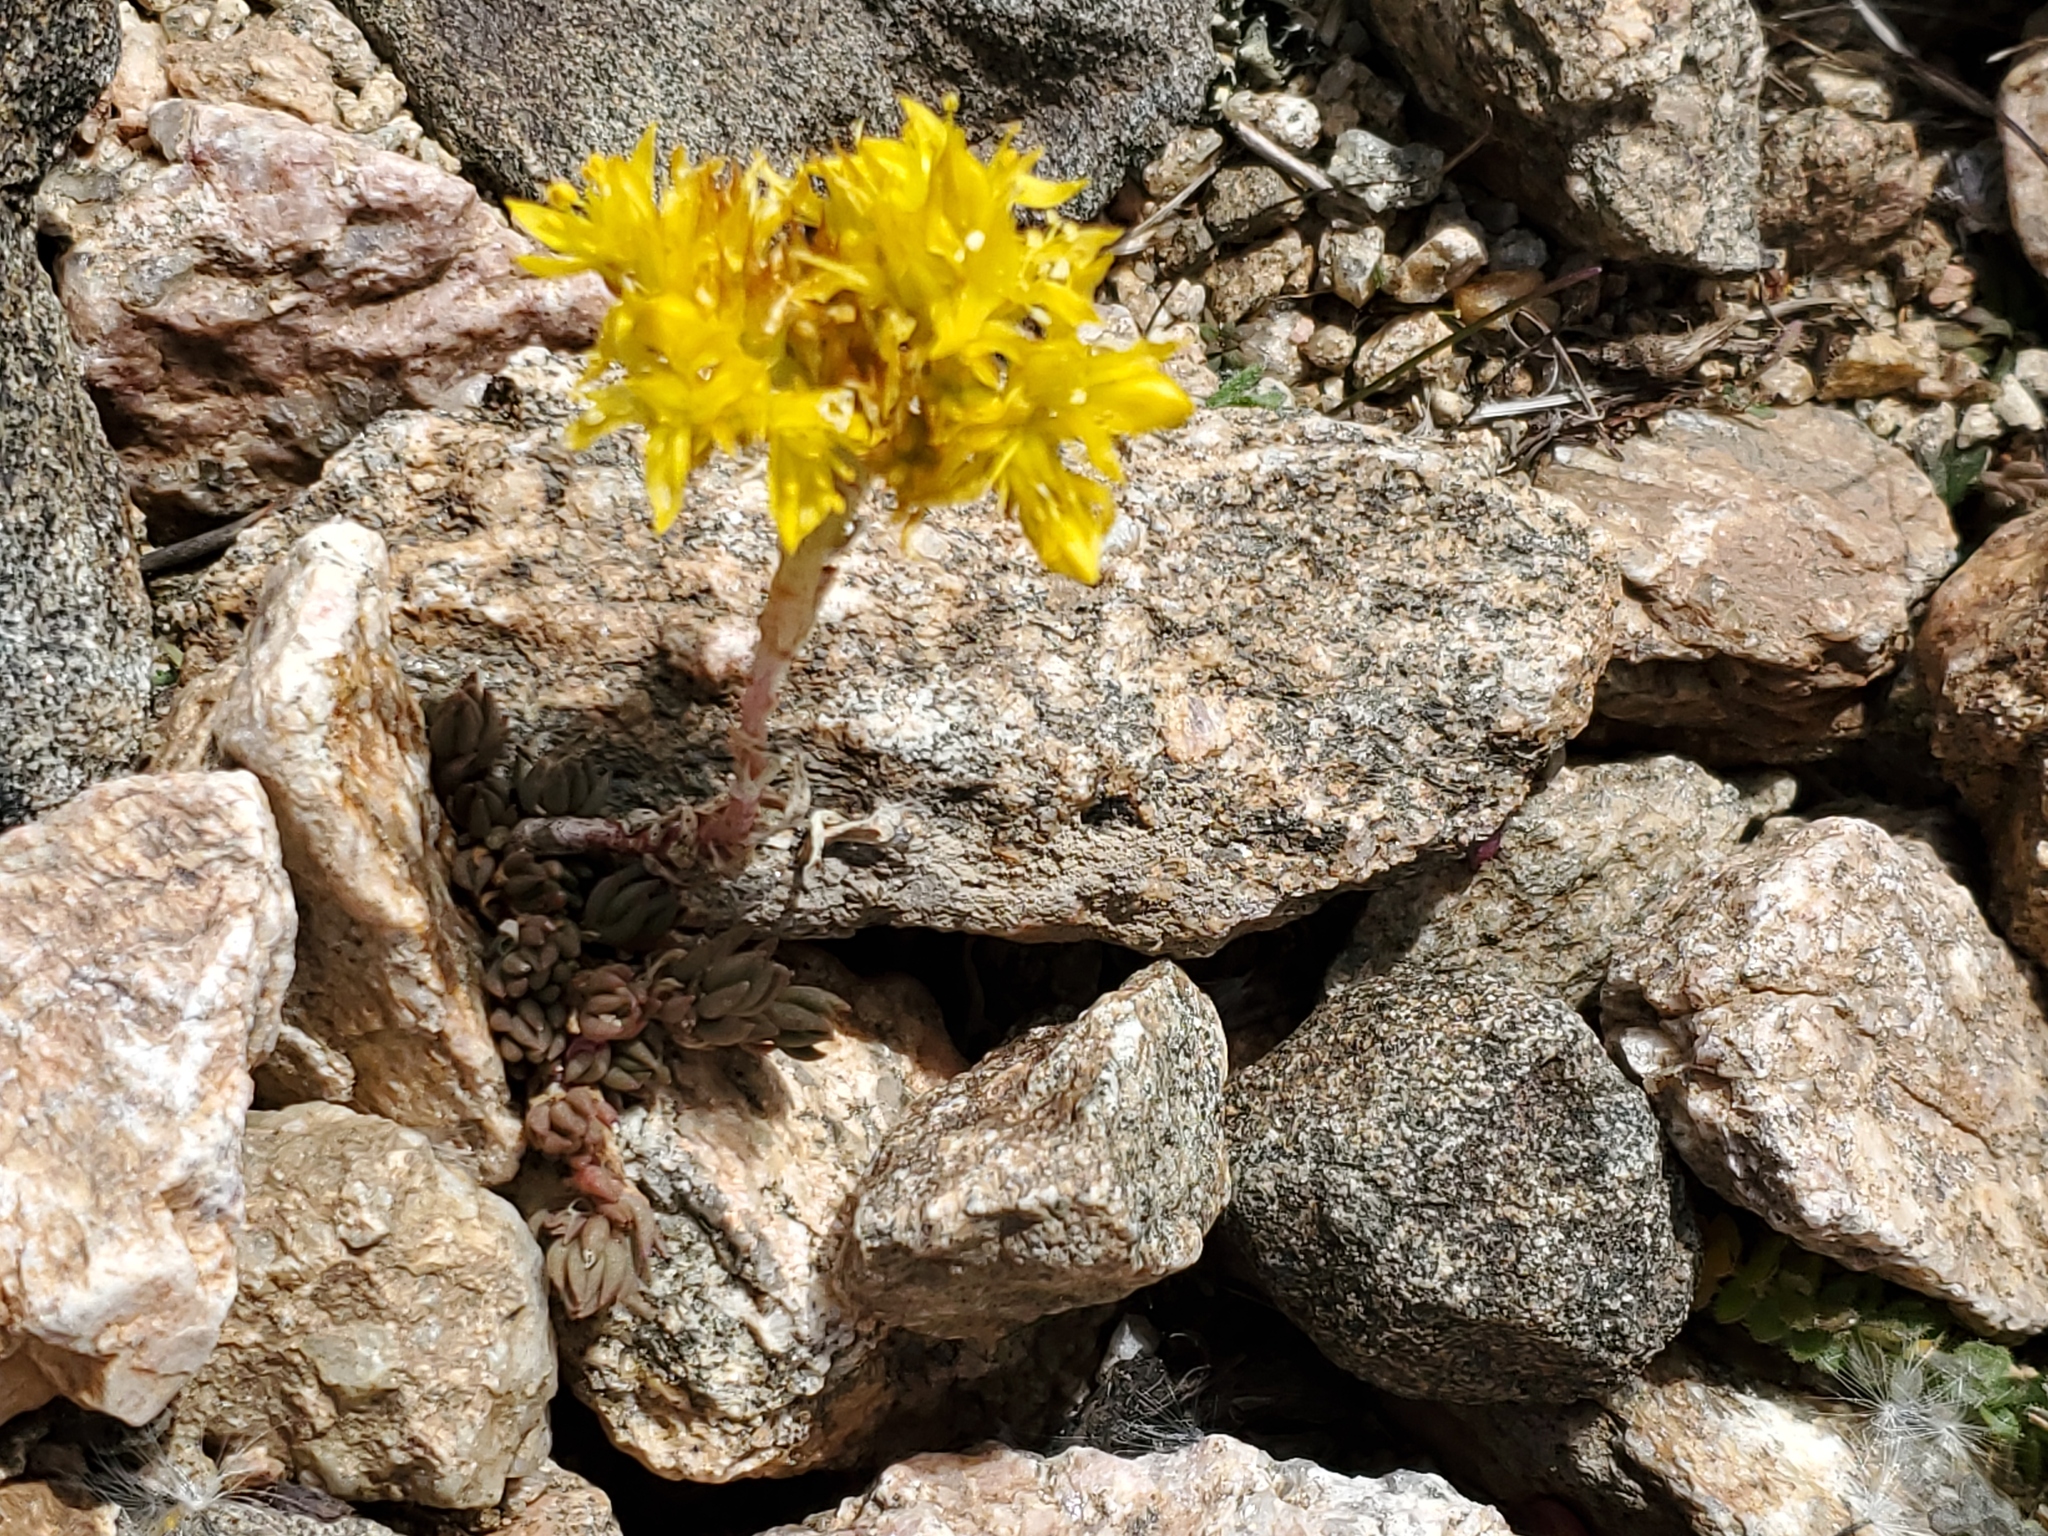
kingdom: Plantae
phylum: Tracheophyta
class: Magnoliopsida
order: Saxifragales
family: Crassulaceae
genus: Sedum
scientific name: Sedum lanceolatum
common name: Common stonecrop
